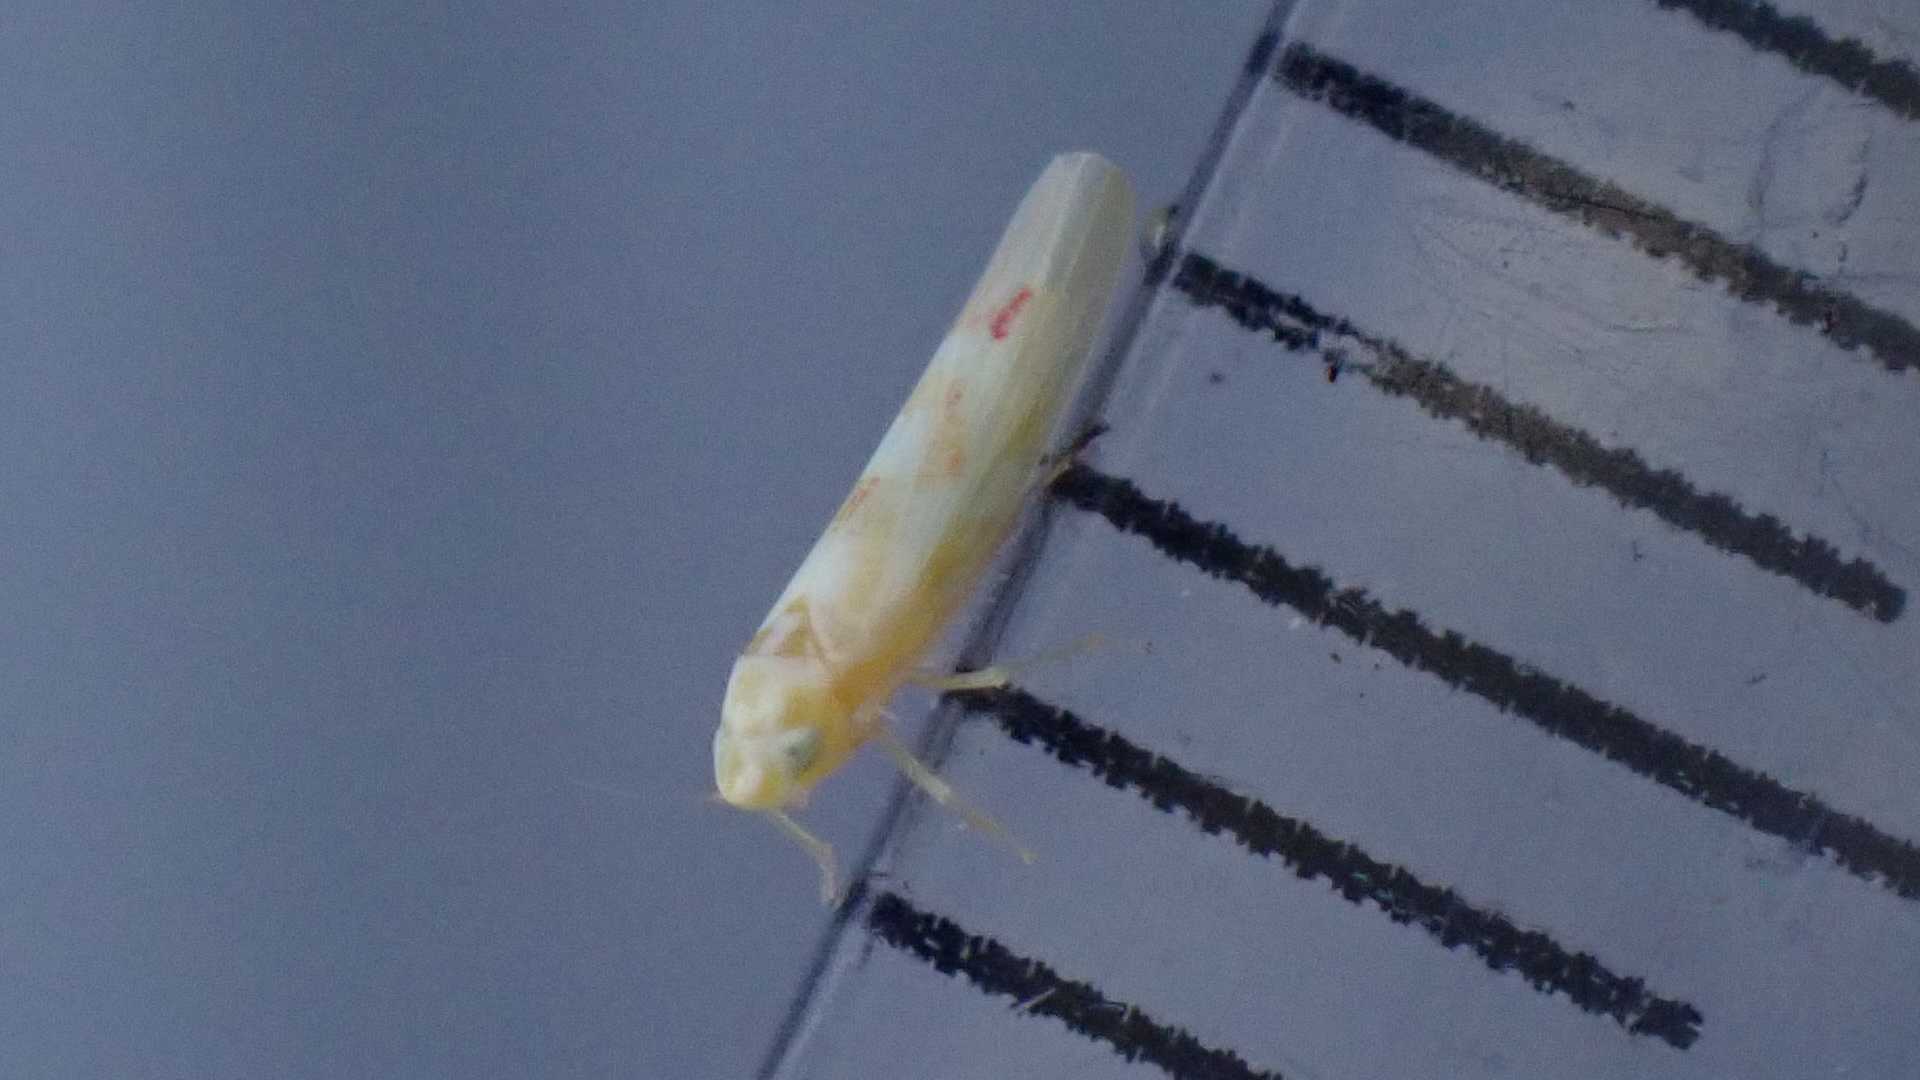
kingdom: Animalia
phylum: Arthropoda
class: Insecta
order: Hemiptera
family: Cicadellidae
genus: Zygina
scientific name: Zygina tiliae
